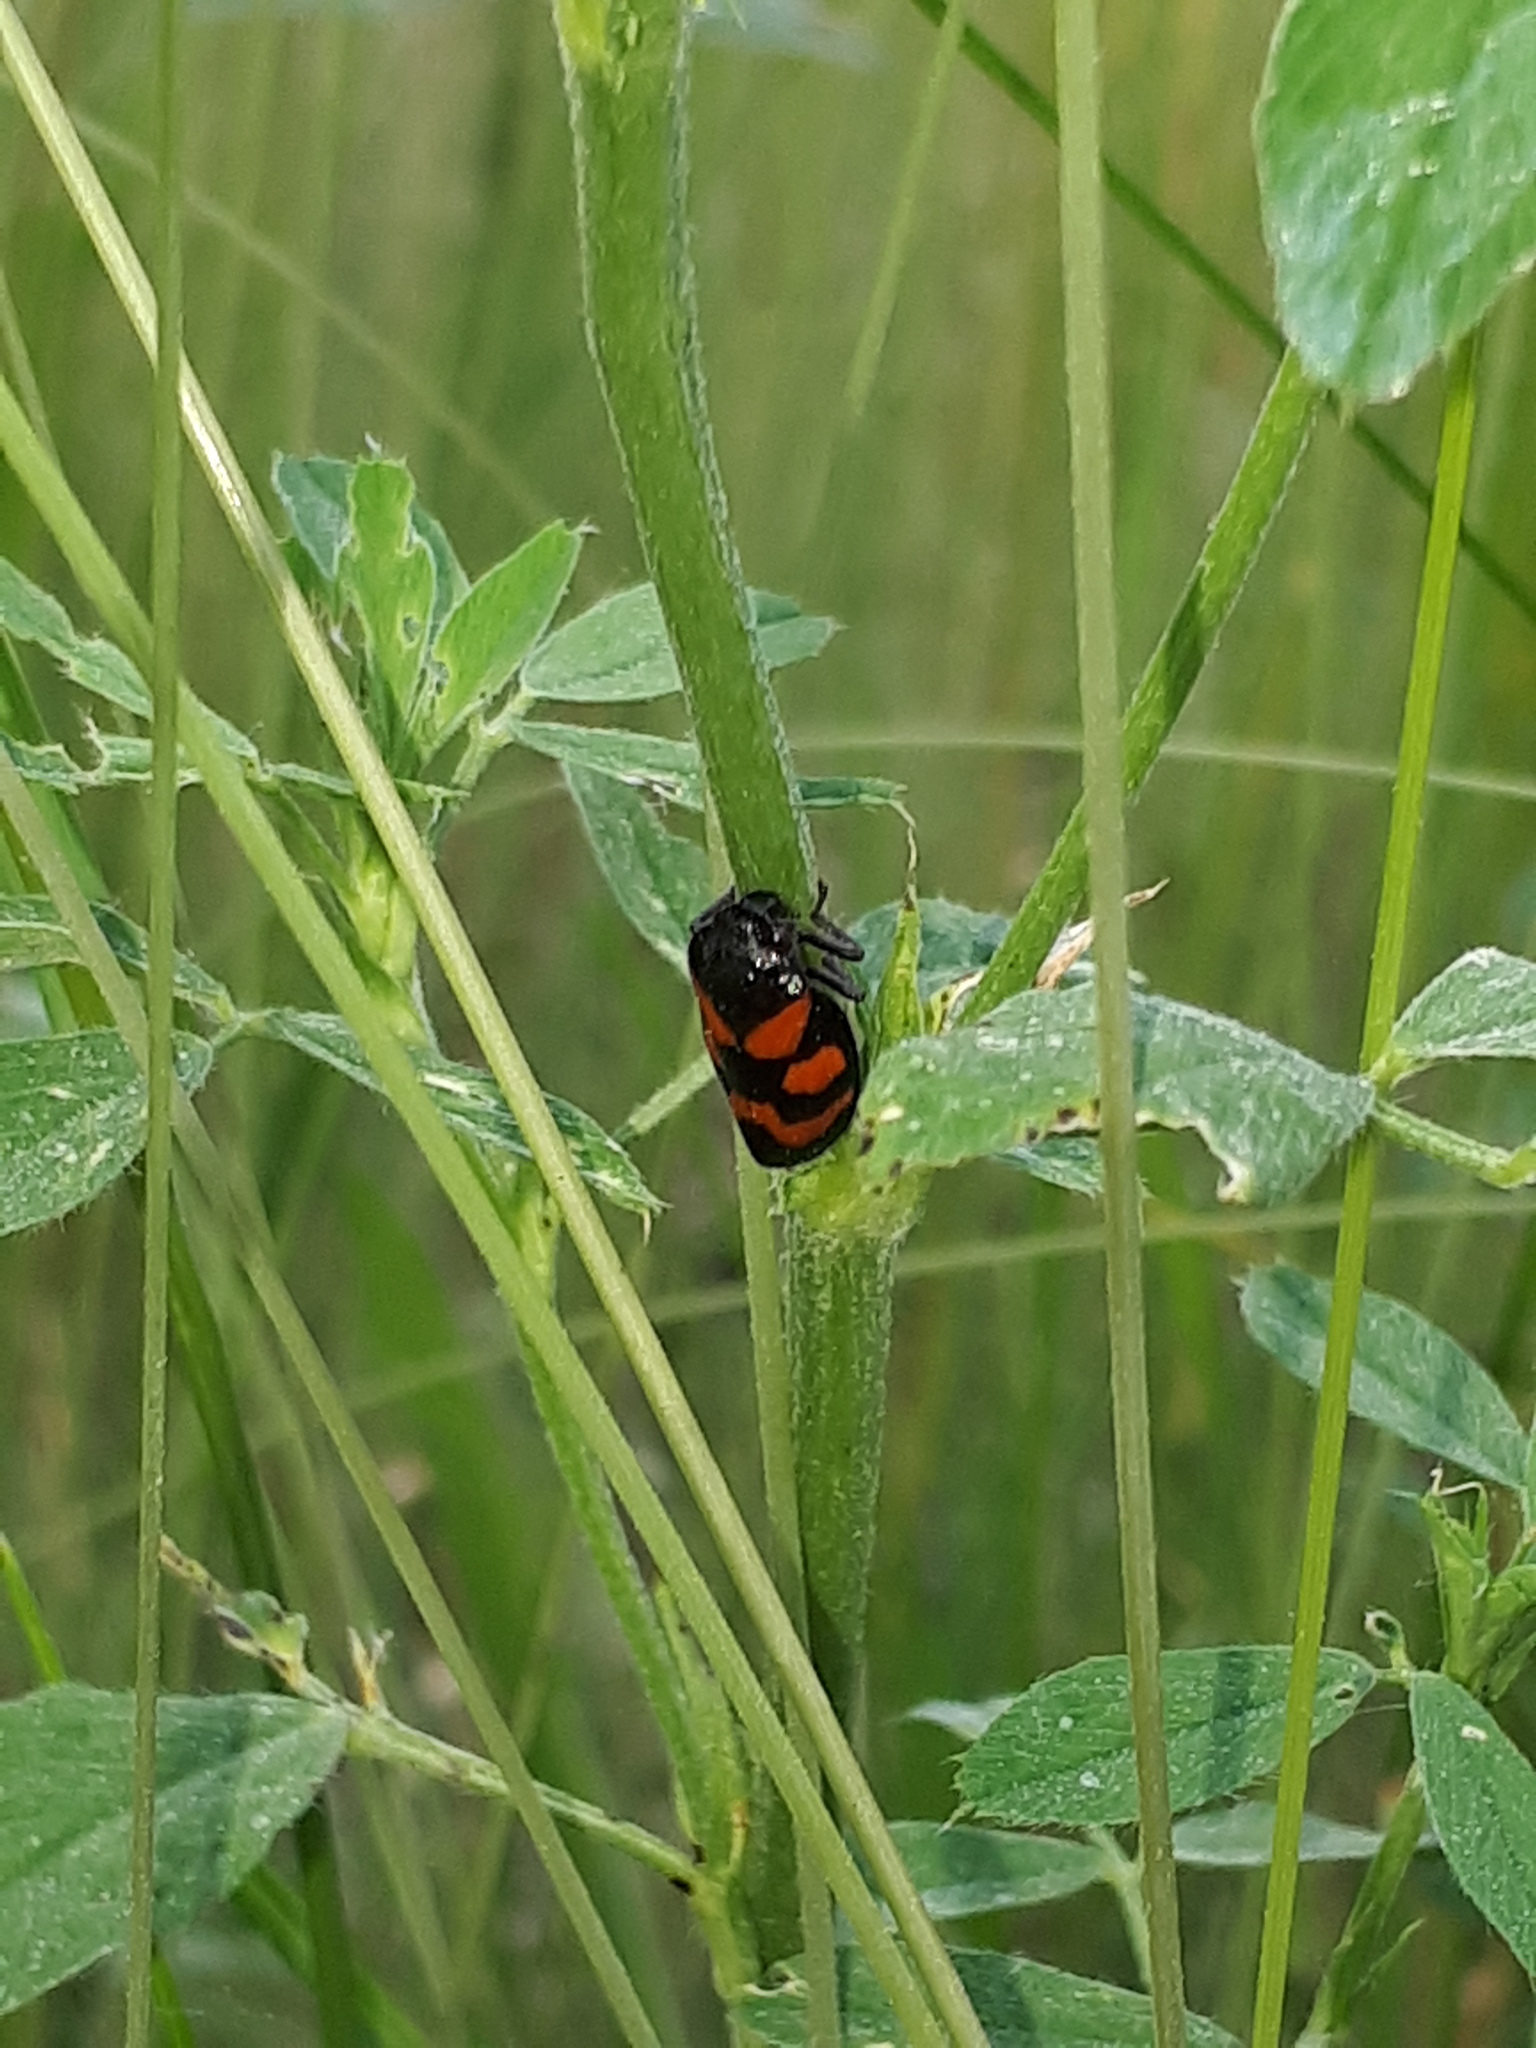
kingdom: Animalia
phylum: Arthropoda
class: Insecta
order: Hemiptera
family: Cercopidae
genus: Cercopis
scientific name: Cercopis vulnerata
